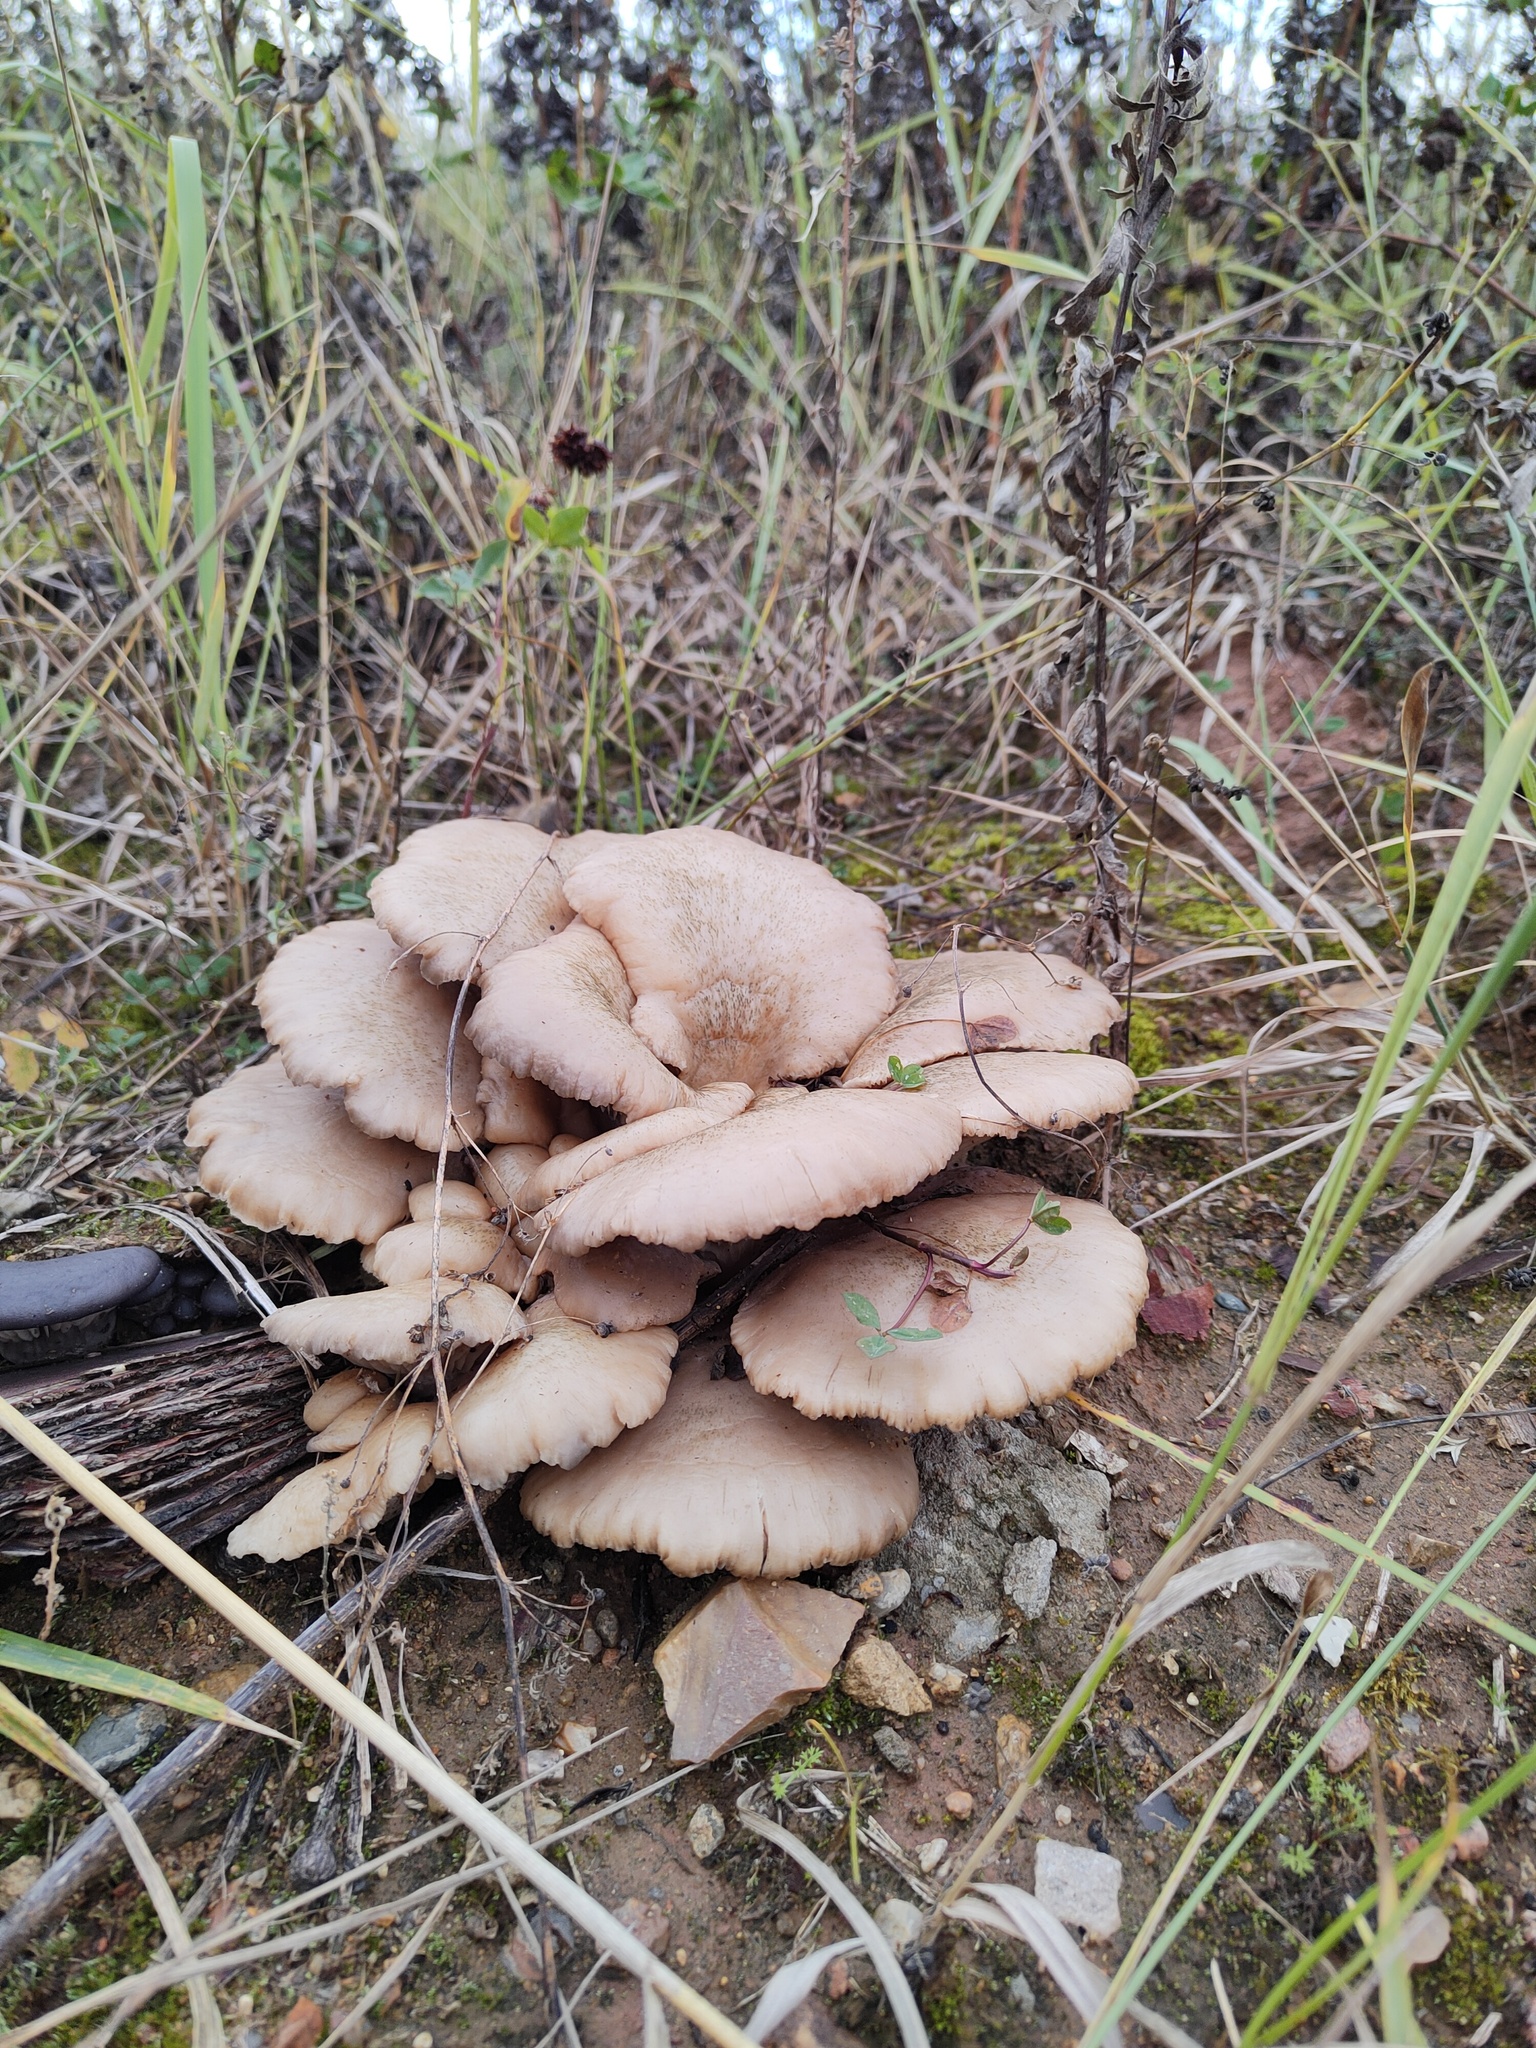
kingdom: Fungi
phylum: Basidiomycota
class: Agaricomycetes
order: Agaricales
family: Pleurotaceae
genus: Pleurotus
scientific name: Pleurotus ostreatus
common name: Oyster mushroom
